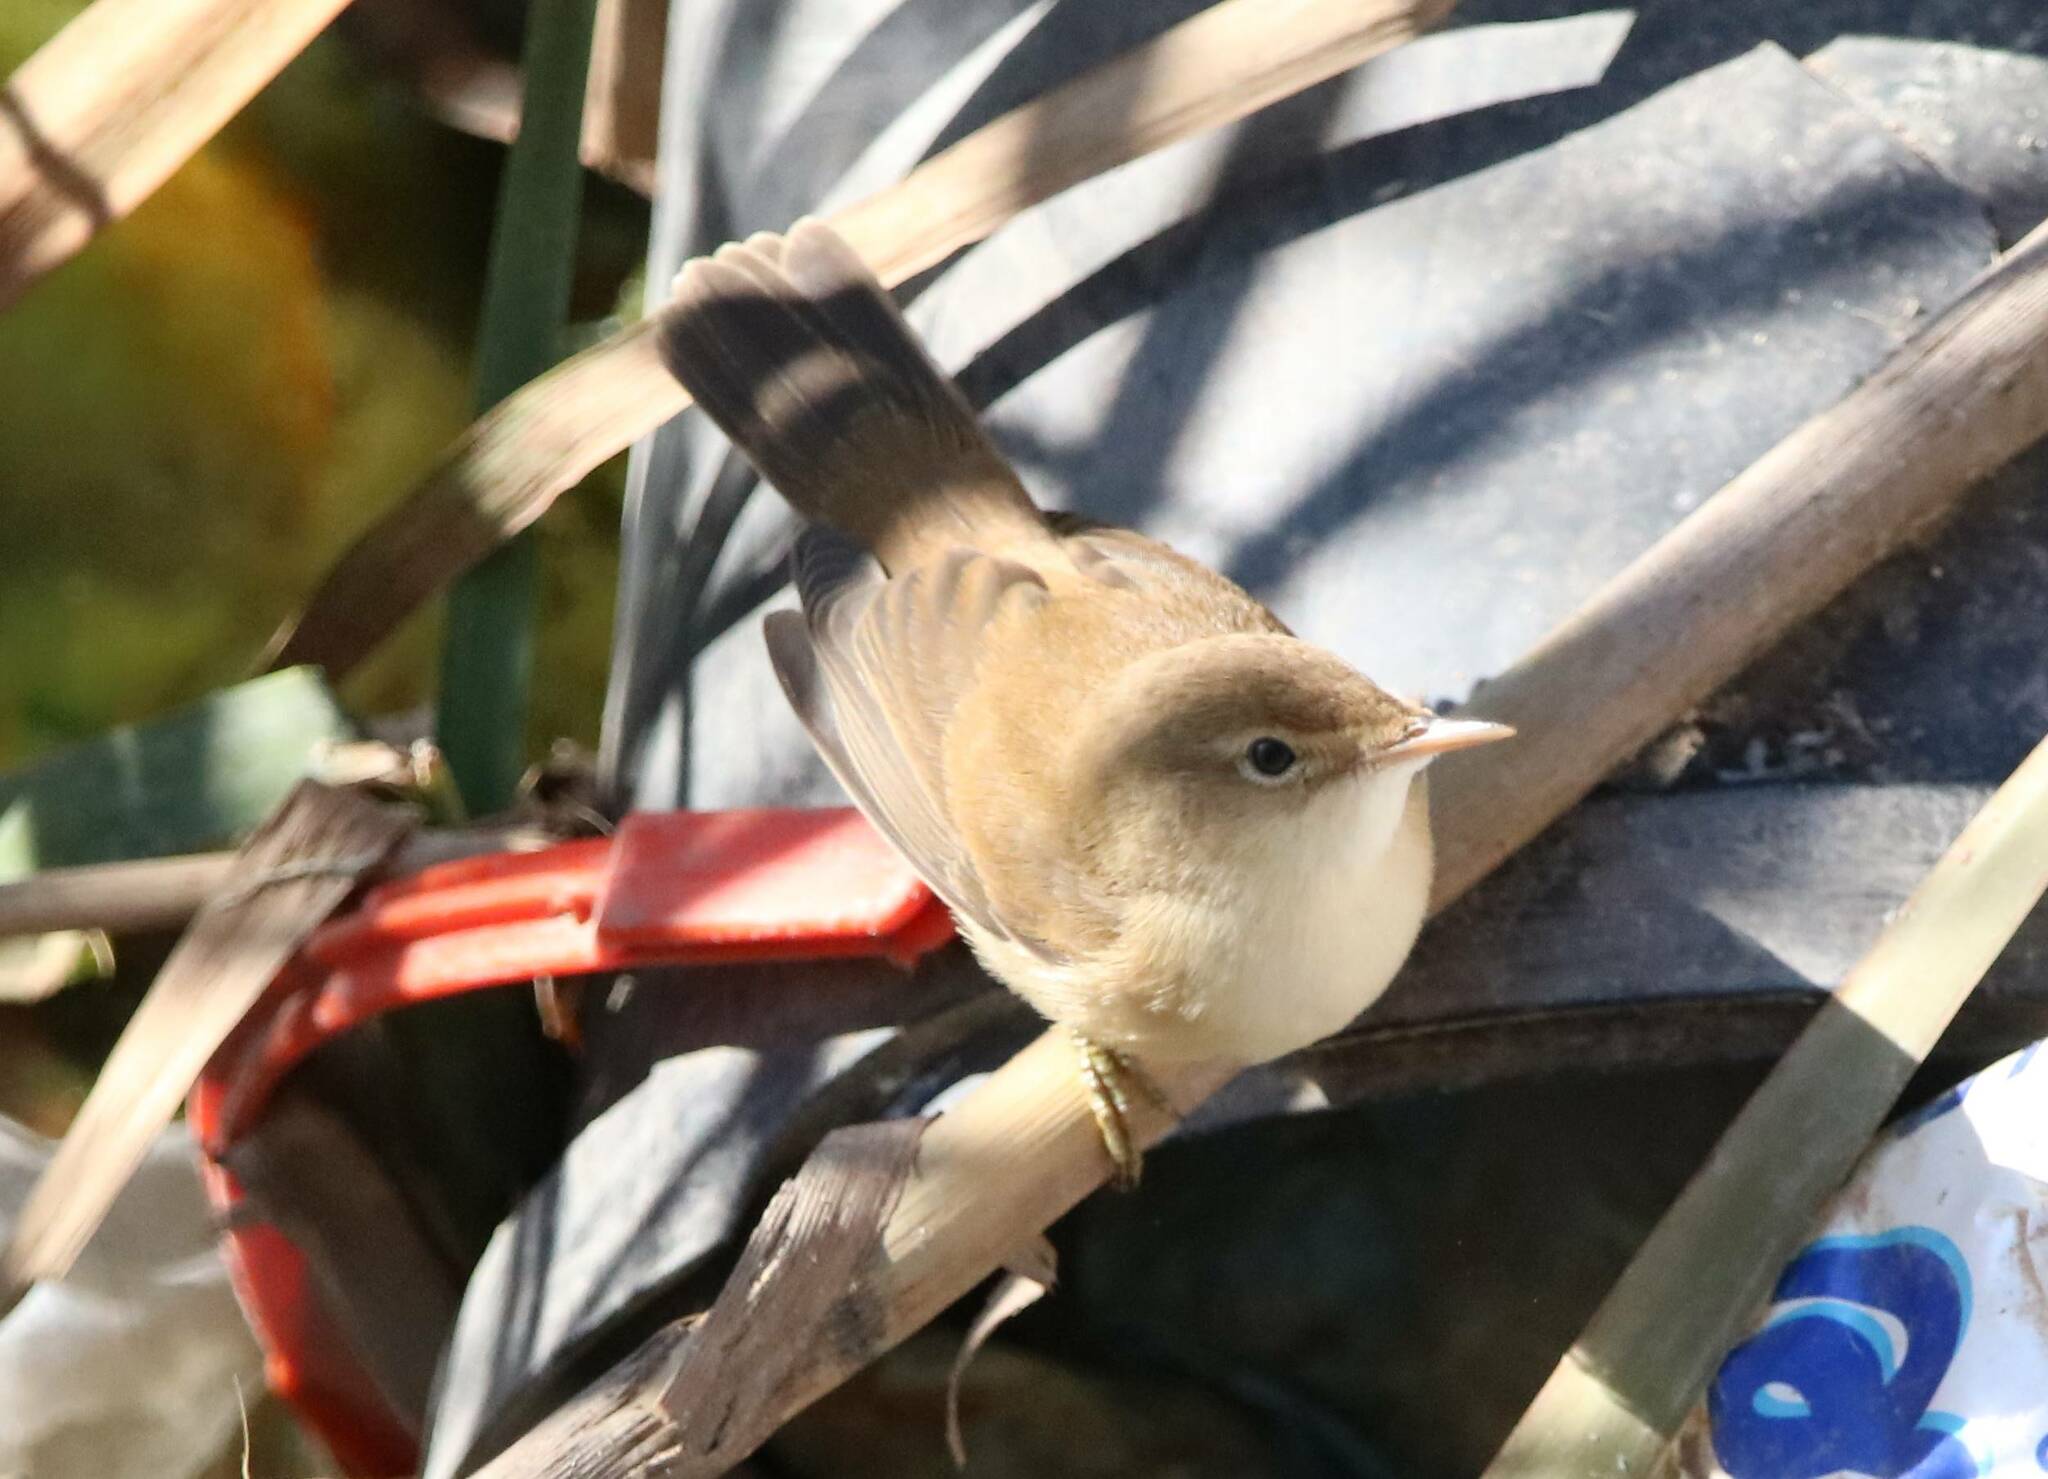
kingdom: Animalia
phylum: Chordata
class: Aves
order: Passeriformes
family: Acrocephalidae
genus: Acrocephalus
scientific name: Acrocephalus scirpaceus
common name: Eurasian reed warbler
